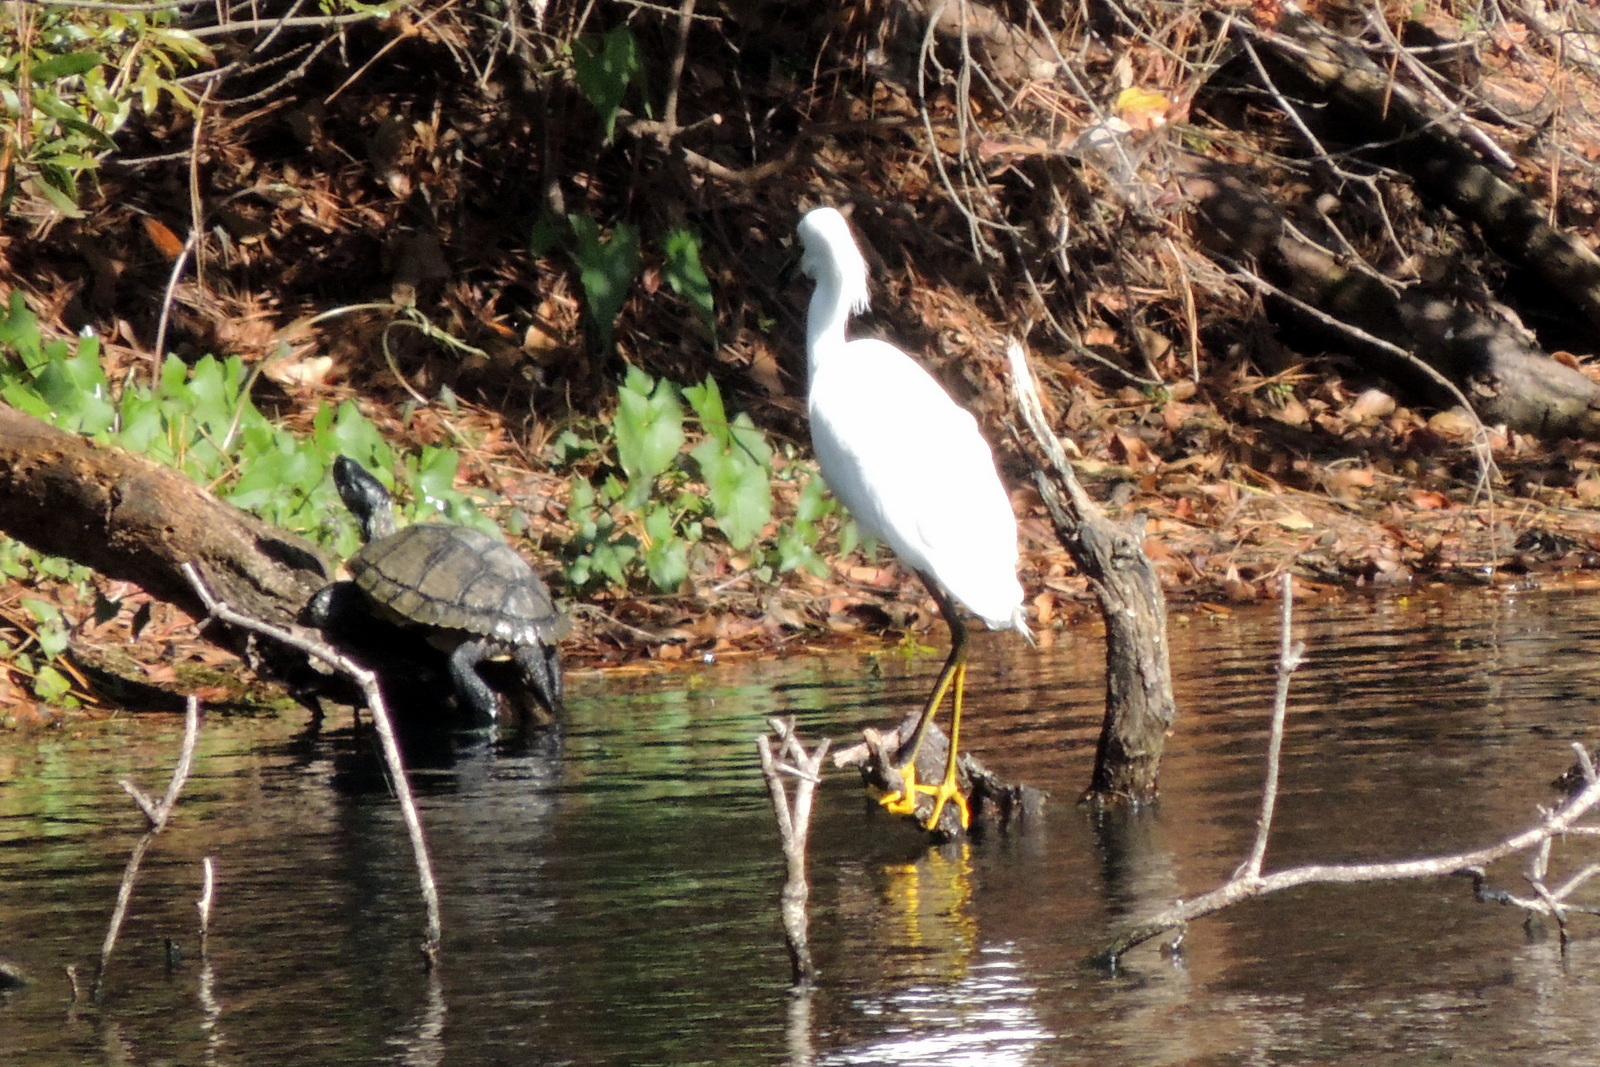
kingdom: Animalia
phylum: Chordata
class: Aves
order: Pelecaniformes
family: Ardeidae
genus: Egretta
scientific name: Egretta thula
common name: Snowy egret
